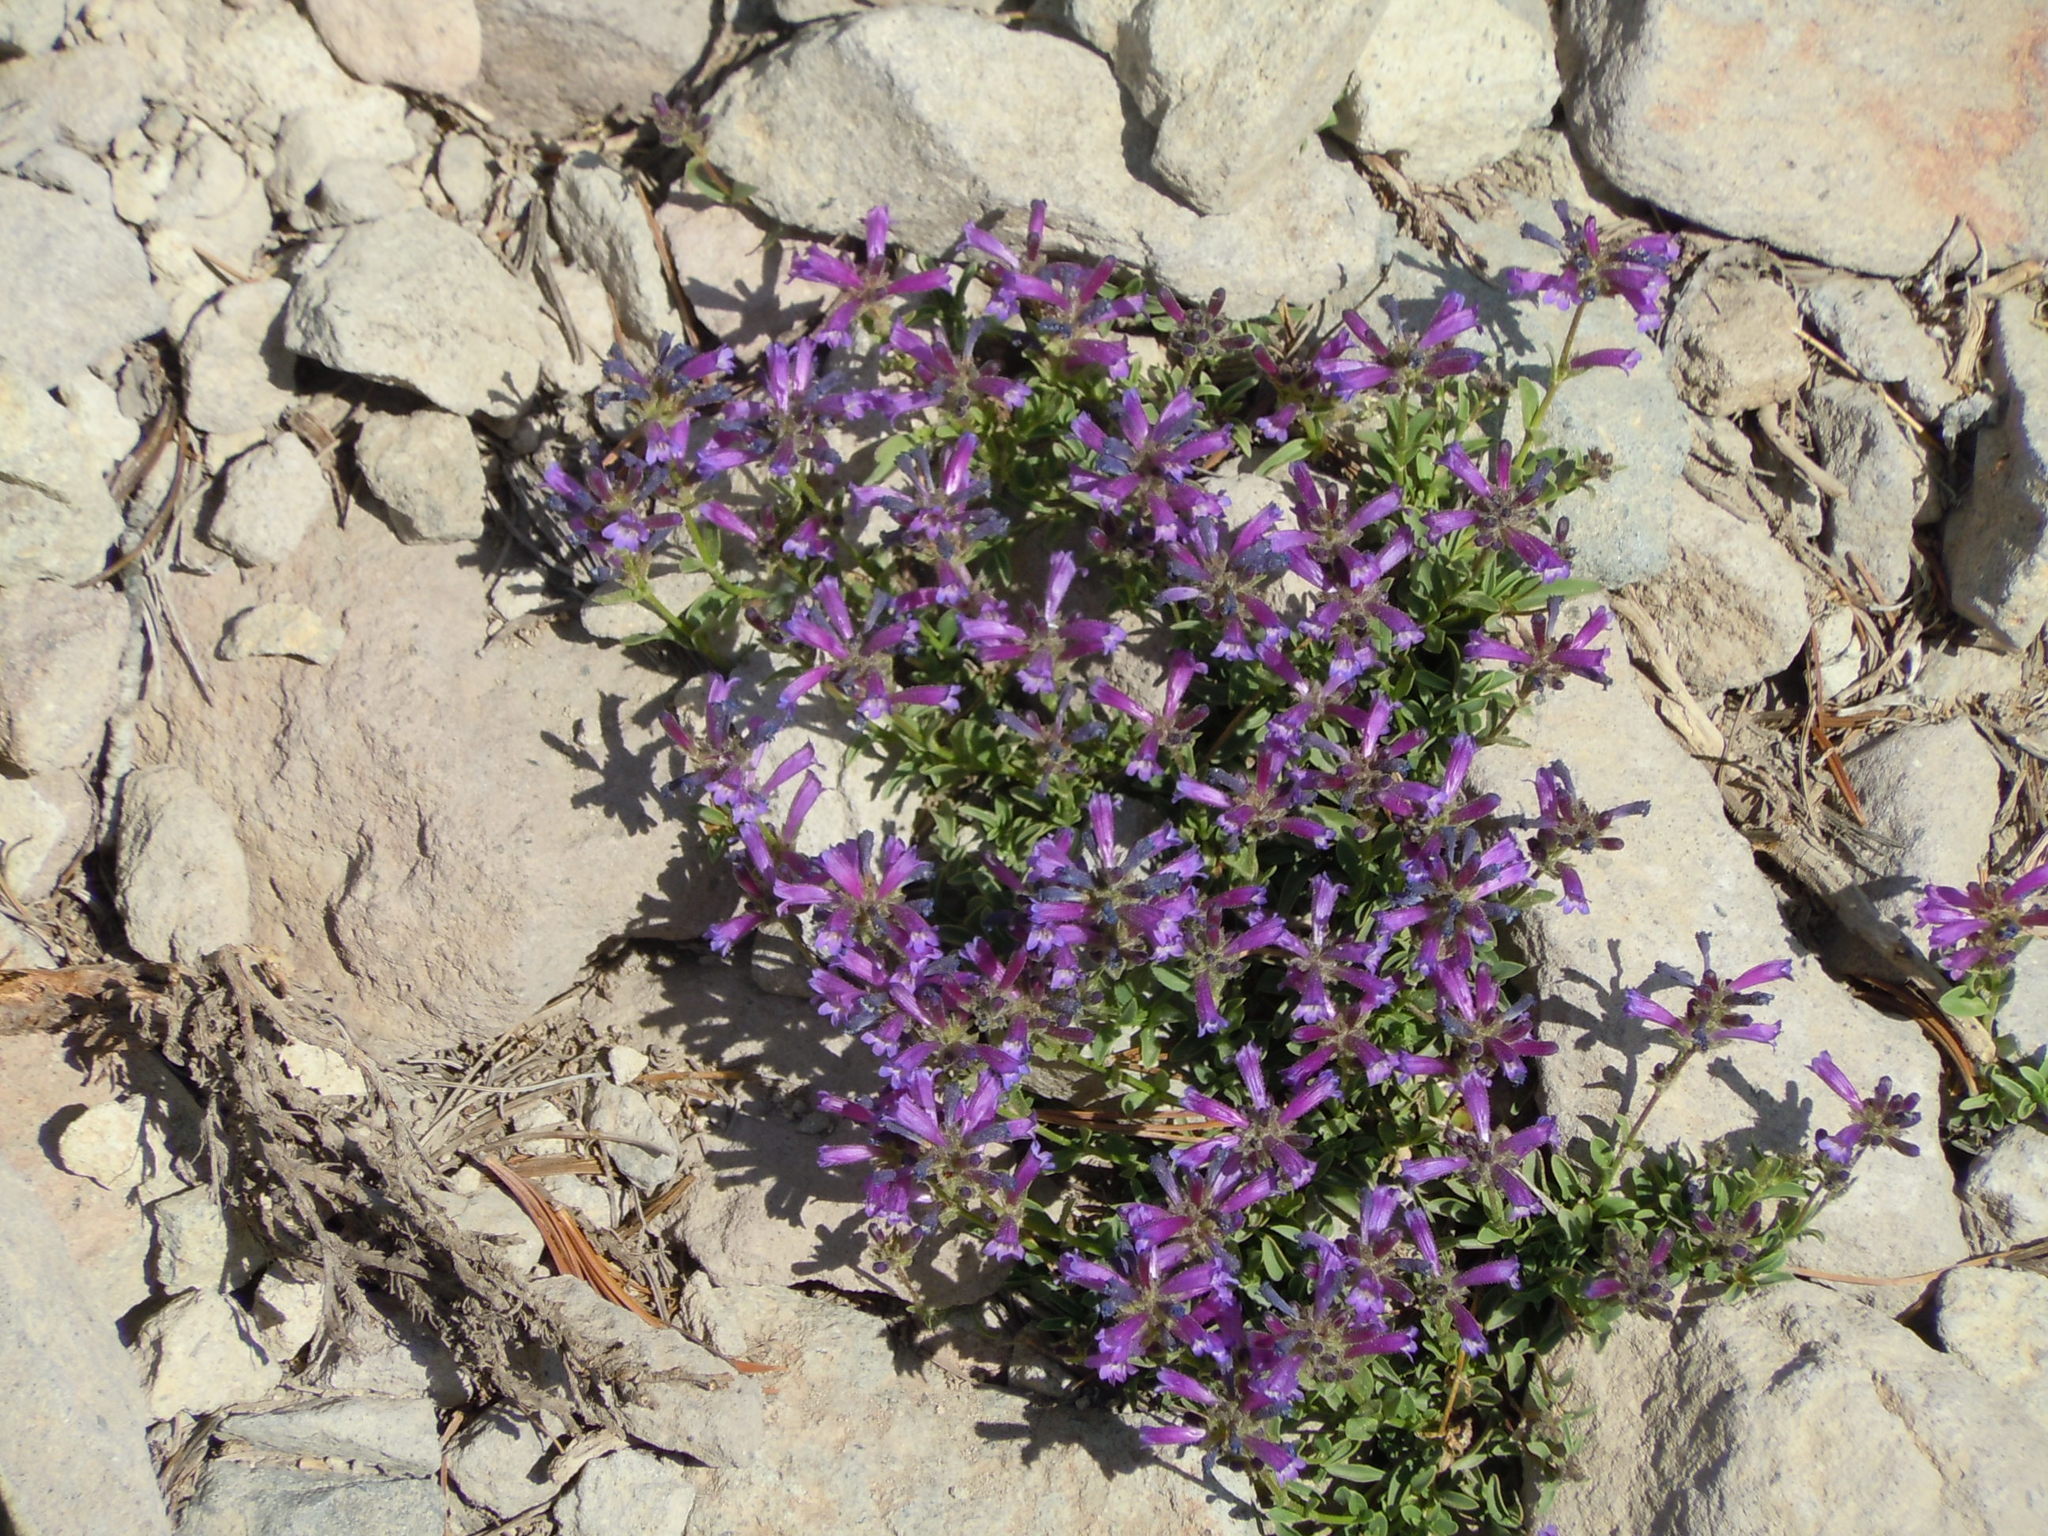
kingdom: Plantae
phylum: Tracheophyta
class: Magnoliopsida
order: Lamiales
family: Plantaginaceae
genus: Penstemon
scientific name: Penstemon davidsonii
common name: Davidson's penstemon
